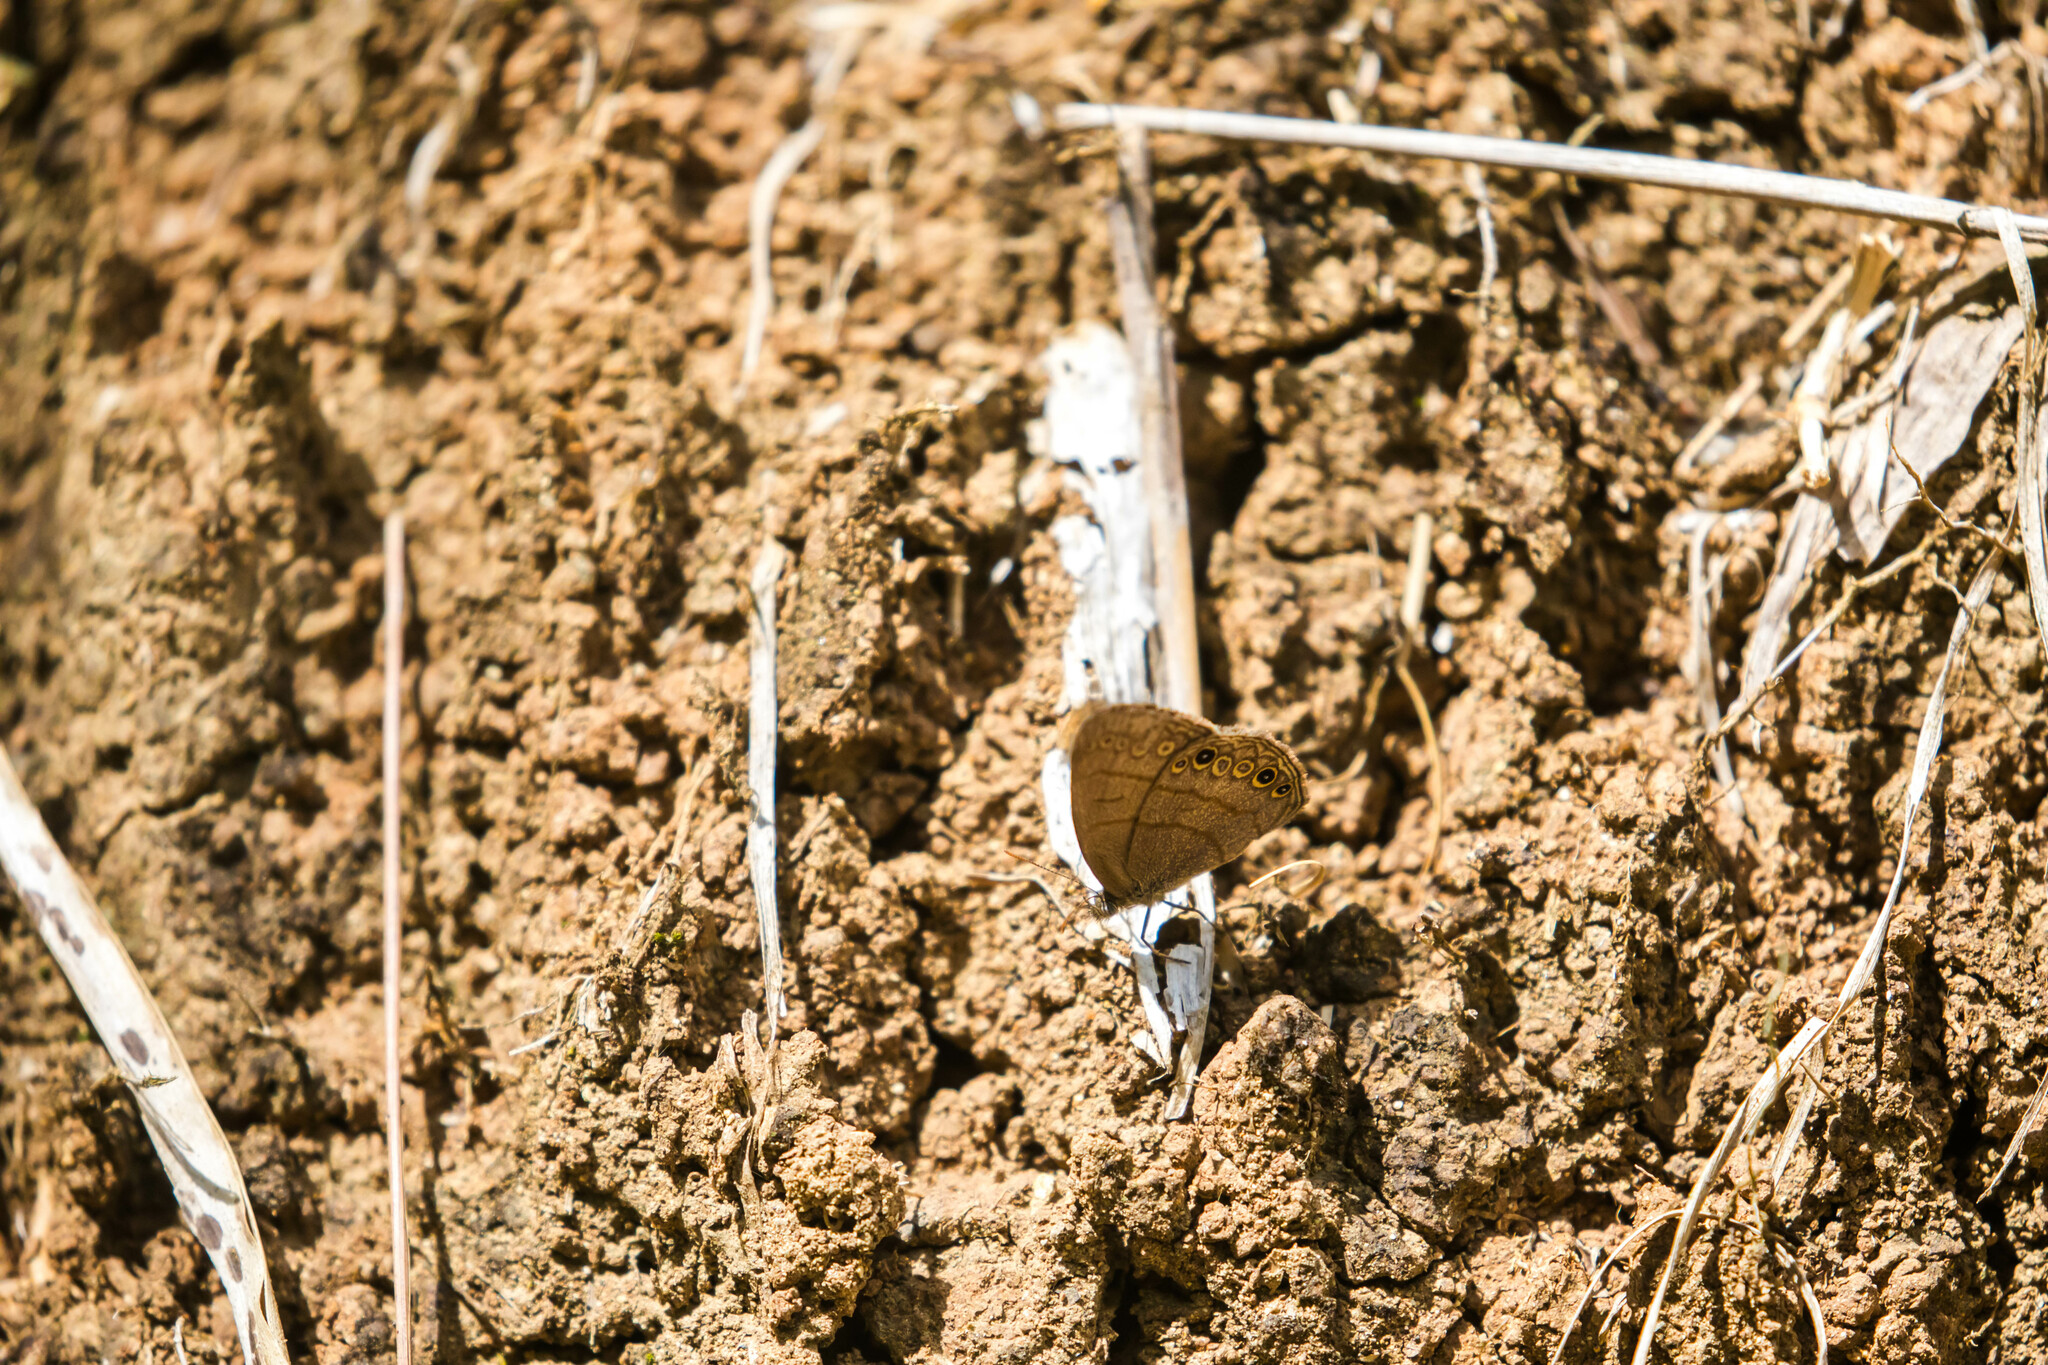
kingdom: Animalia
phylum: Arthropoda
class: Insecta
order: Lepidoptera
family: Nymphalidae
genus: Hermeuptychia
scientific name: Hermeuptychia canthe
